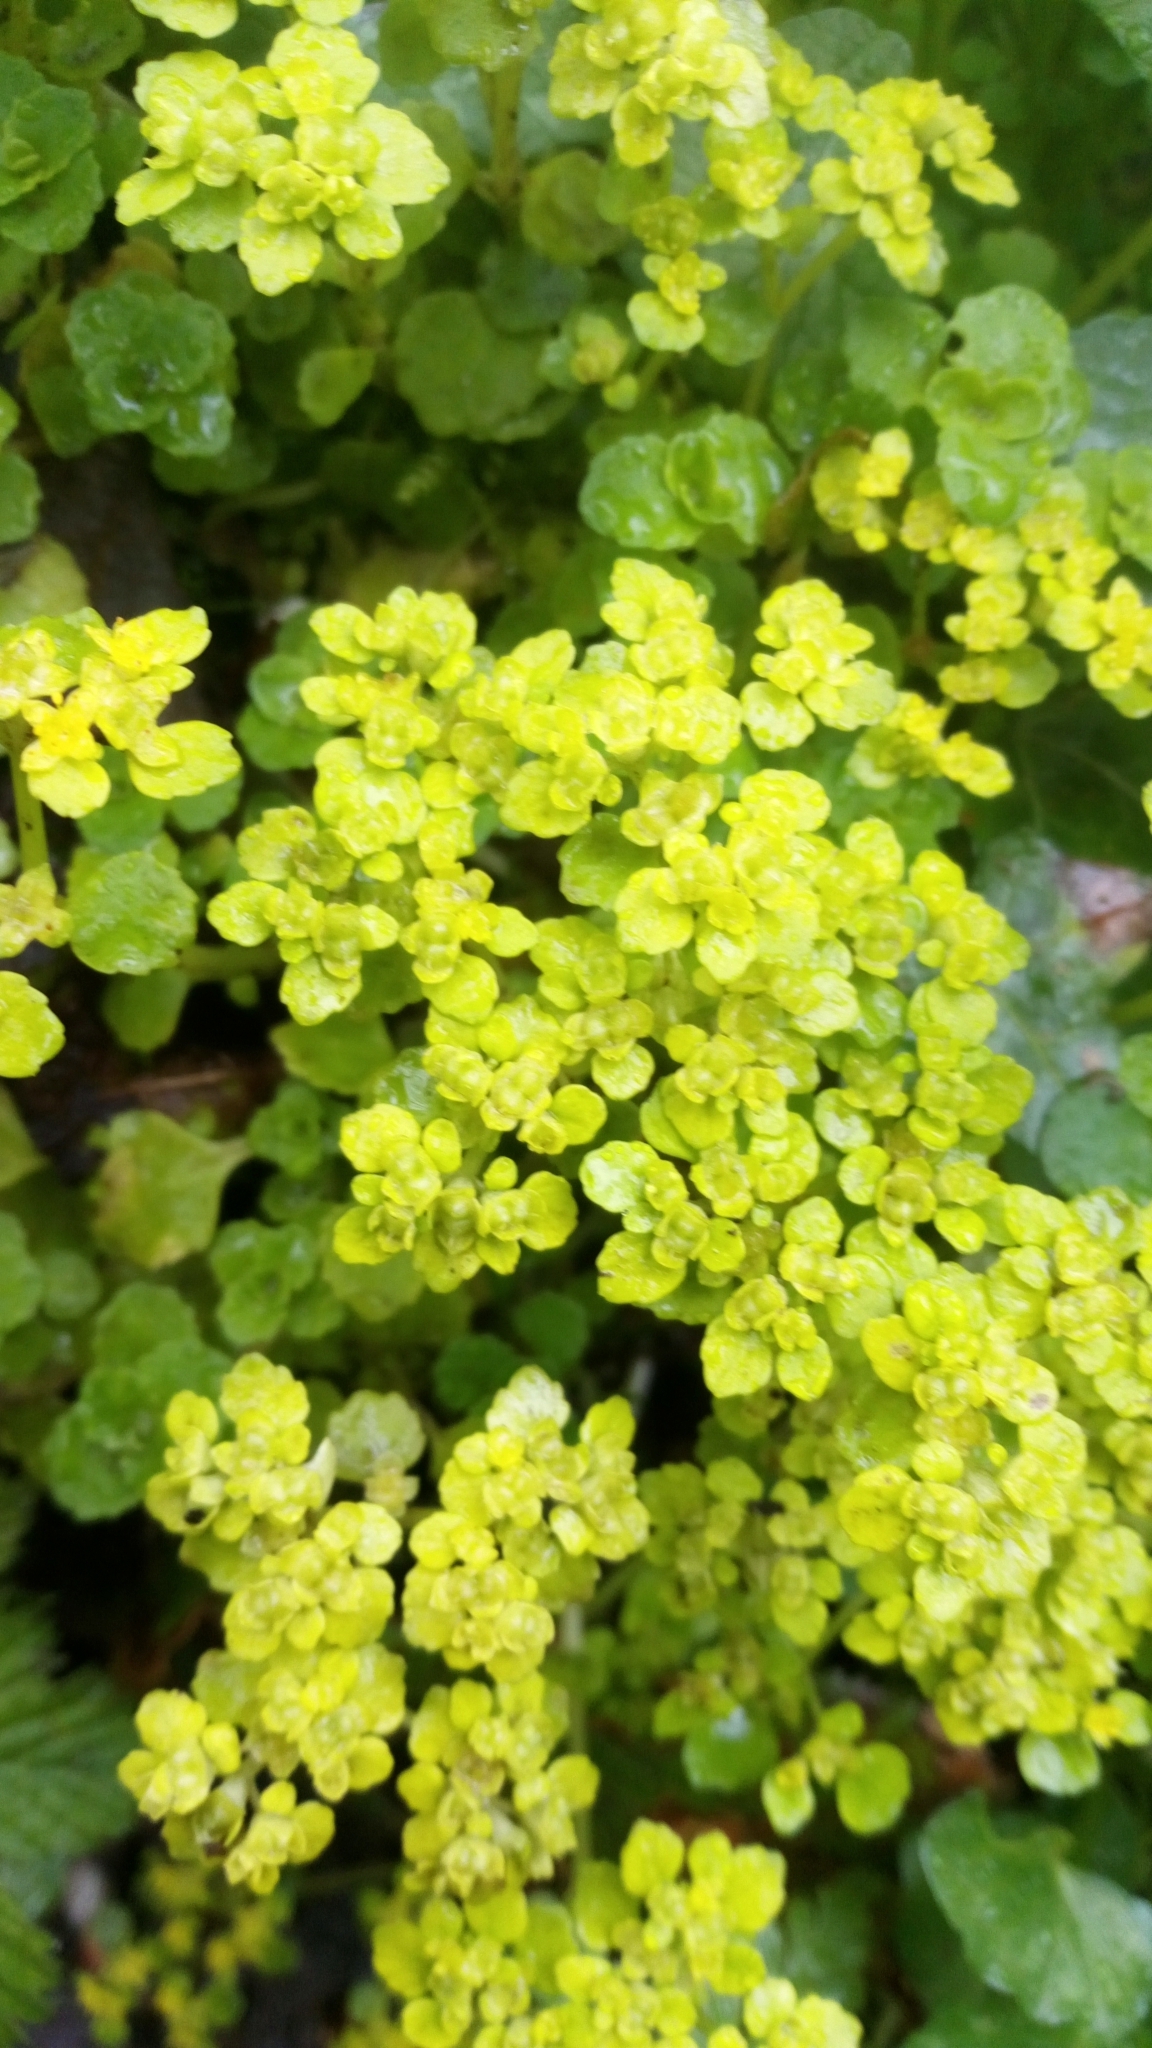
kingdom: Plantae
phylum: Tracheophyta
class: Magnoliopsida
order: Saxifragales
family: Saxifragaceae
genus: Chrysosplenium
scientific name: Chrysosplenium oppositifolium
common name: Opposite-leaved golden-saxifrage
